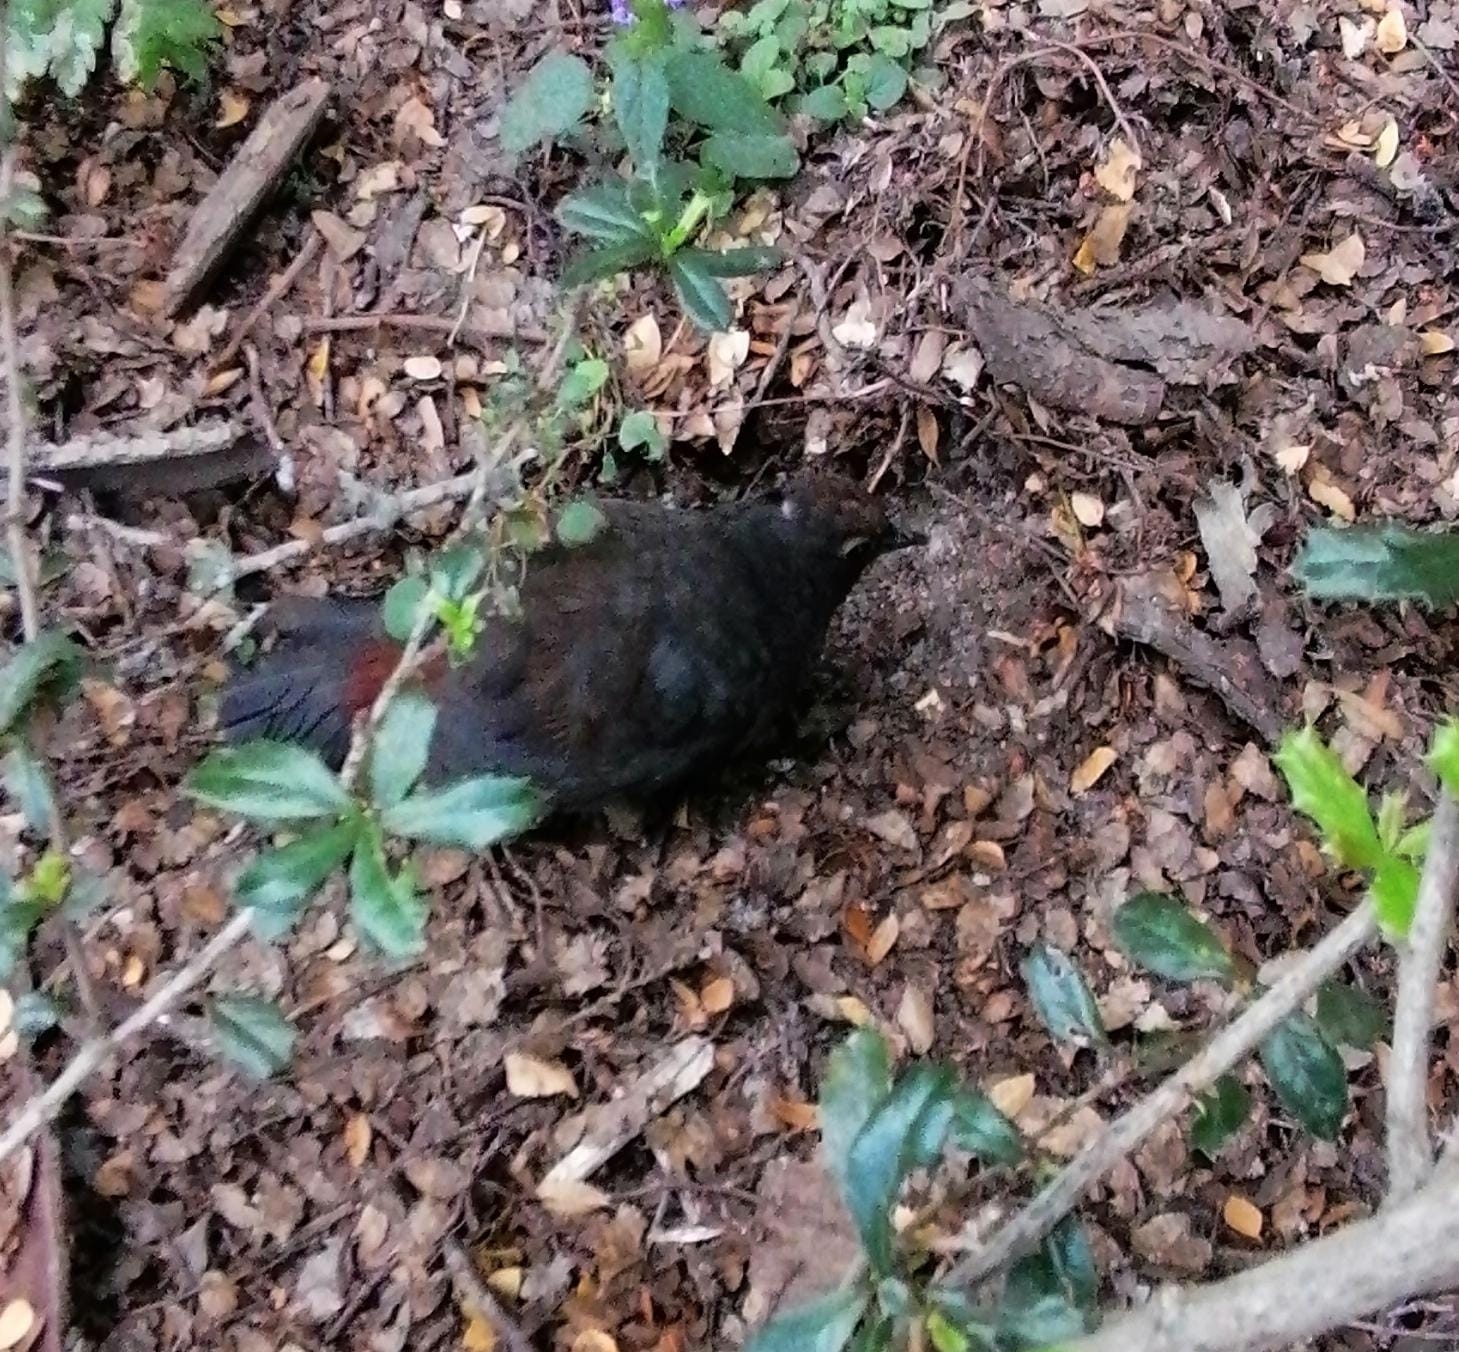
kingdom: Animalia
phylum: Chordata
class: Aves
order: Passeriformes
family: Rhinocryptidae
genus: Pteroptochos
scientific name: Pteroptochos tarnii
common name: Black-throated huet-huet
